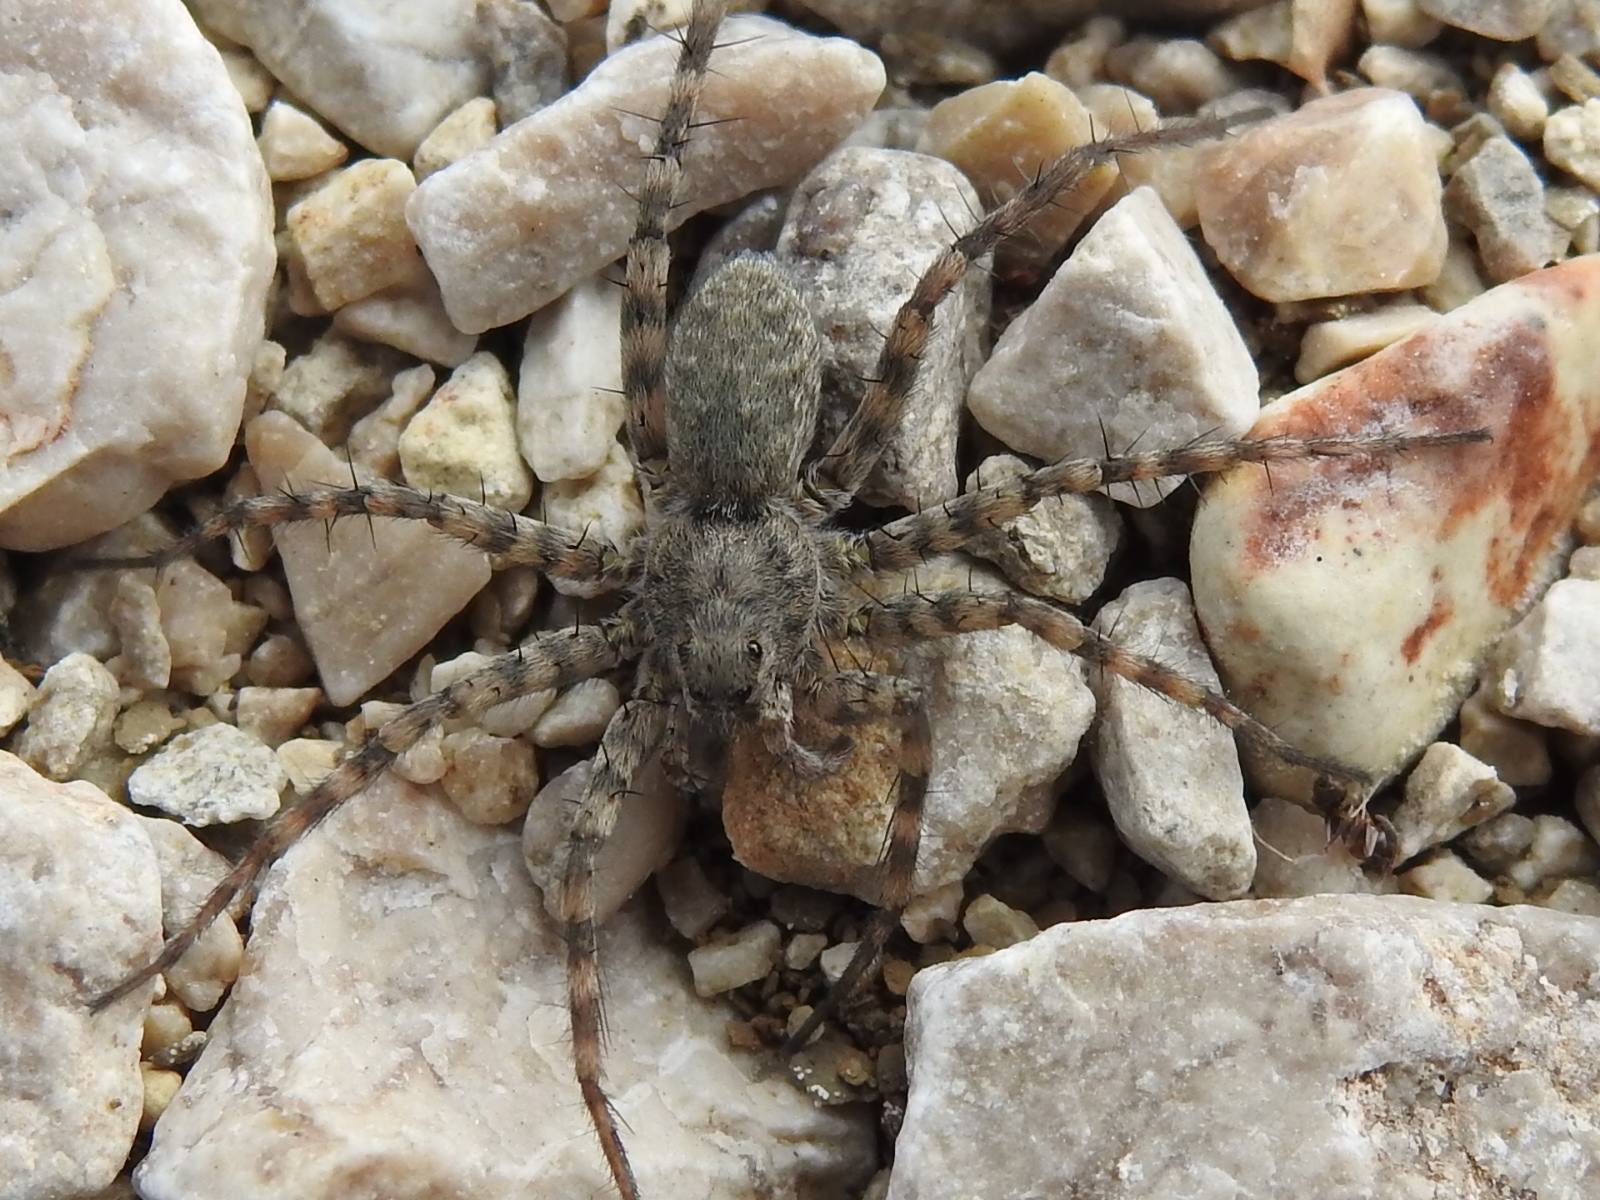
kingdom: Animalia
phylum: Arthropoda
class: Arachnida
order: Araneae
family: Lycosidae
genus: Pardosa
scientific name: Pardosa mercurialis
